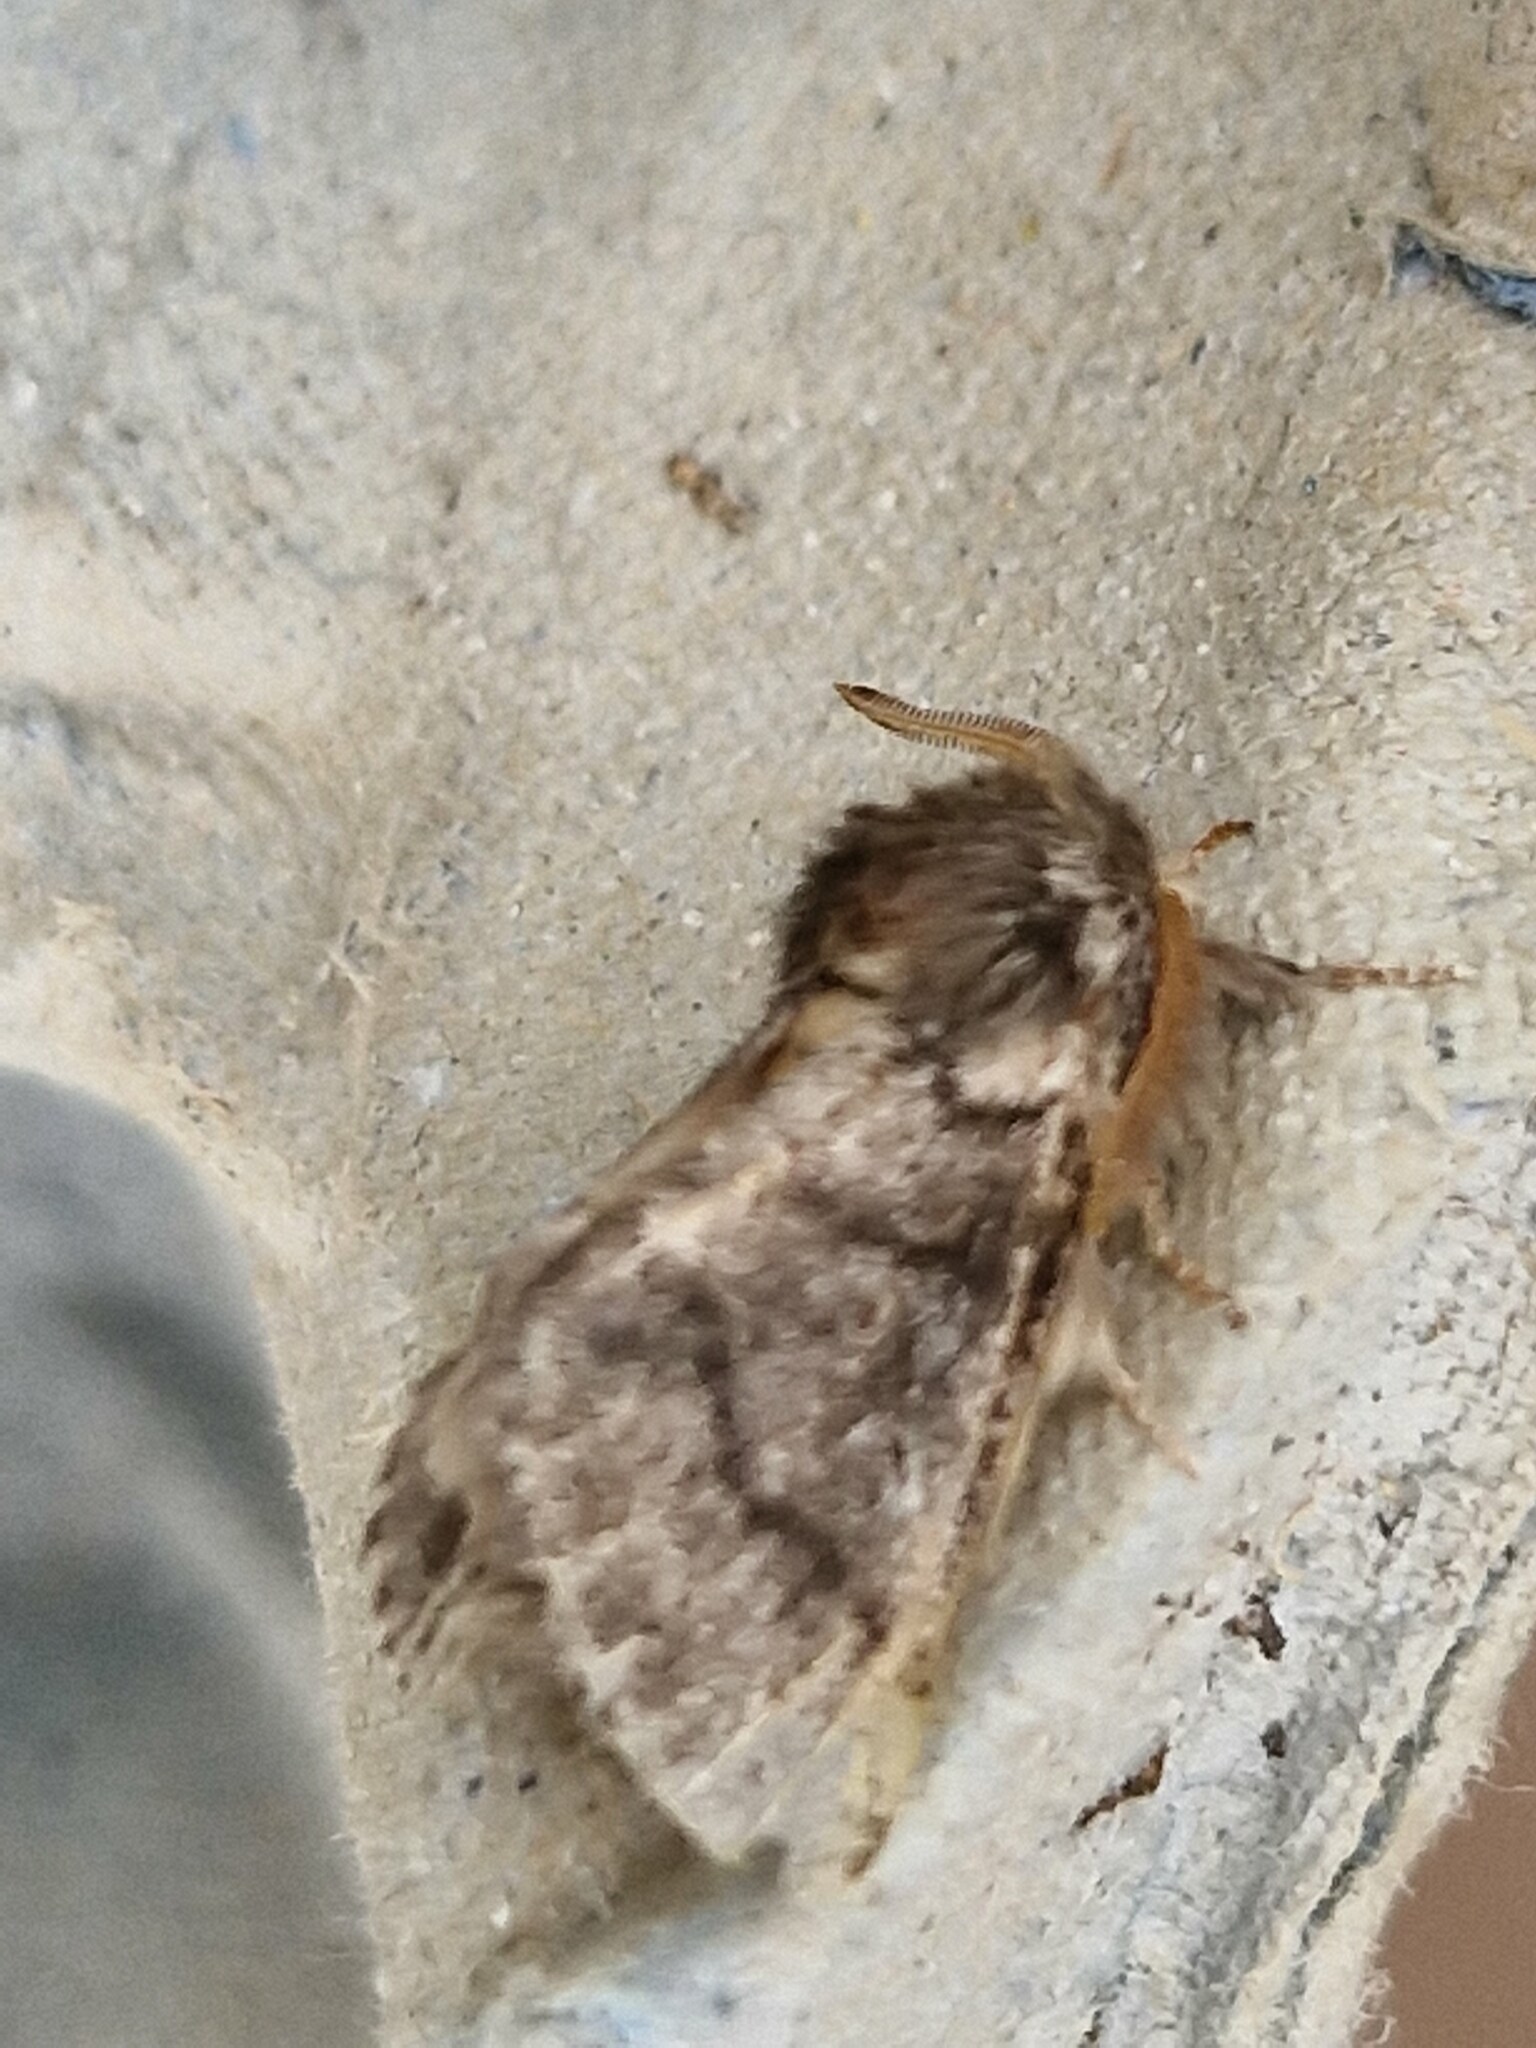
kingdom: Animalia
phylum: Arthropoda
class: Insecta
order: Lepidoptera
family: Notodontidae
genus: Thaumetopoea
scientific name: Thaumetopoea processionea
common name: Oak processionea
